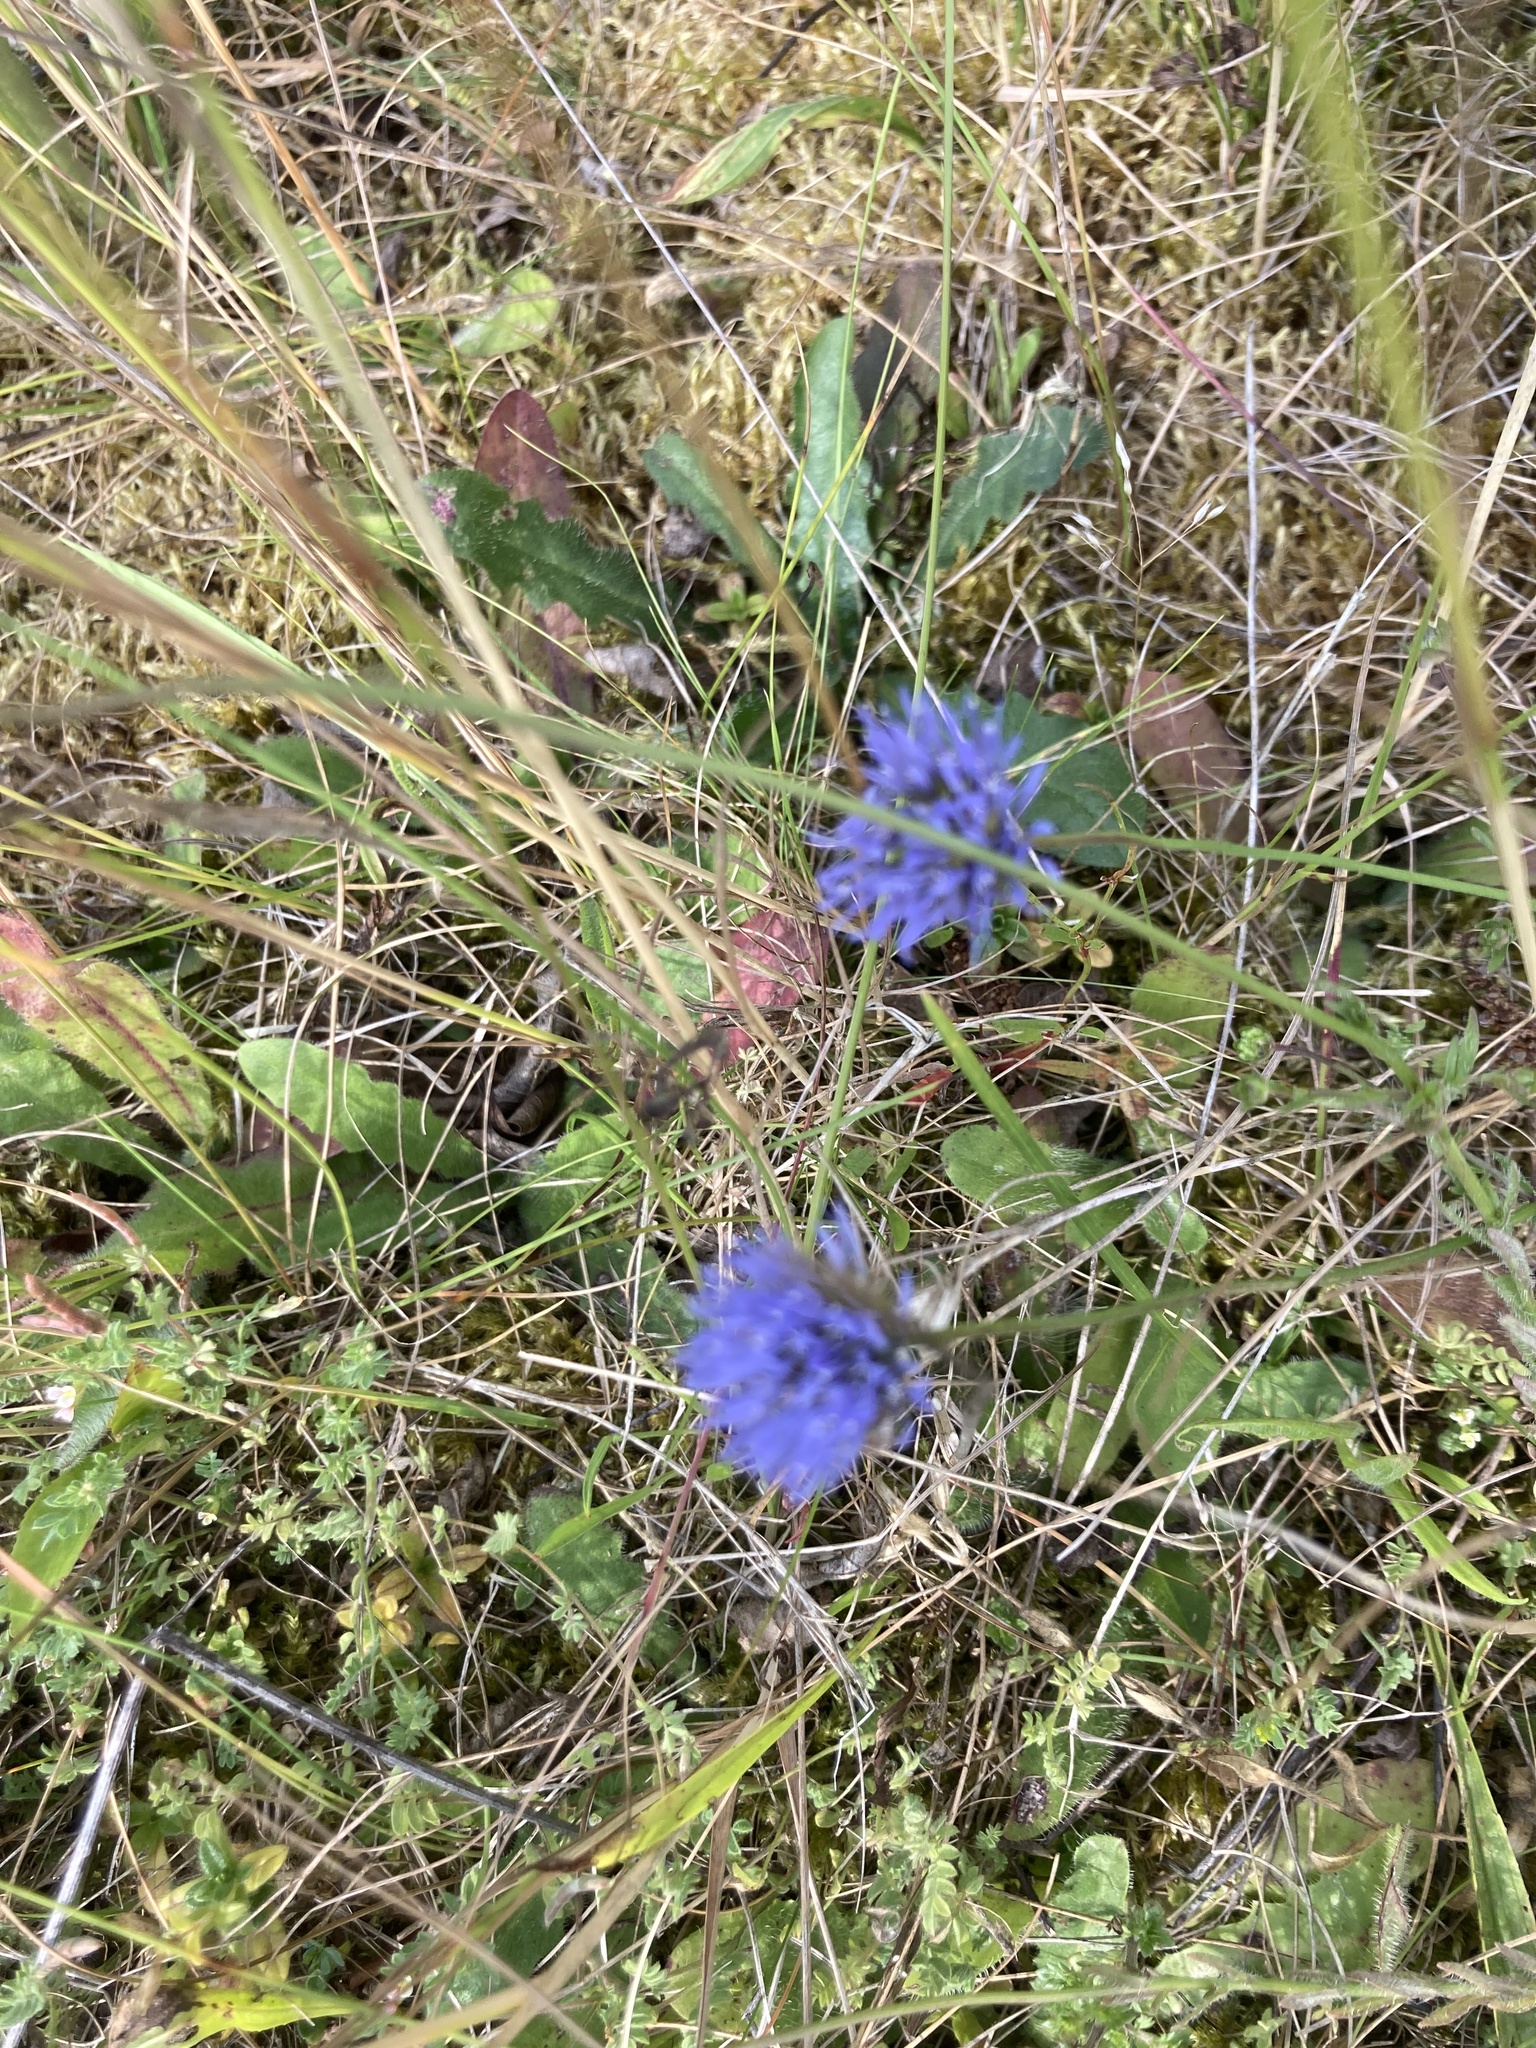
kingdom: Plantae
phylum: Tracheophyta
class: Magnoliopsida
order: Asterales
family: Campanulaceae
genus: Jasione
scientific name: Jasione montana
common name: Sheep's-bit
